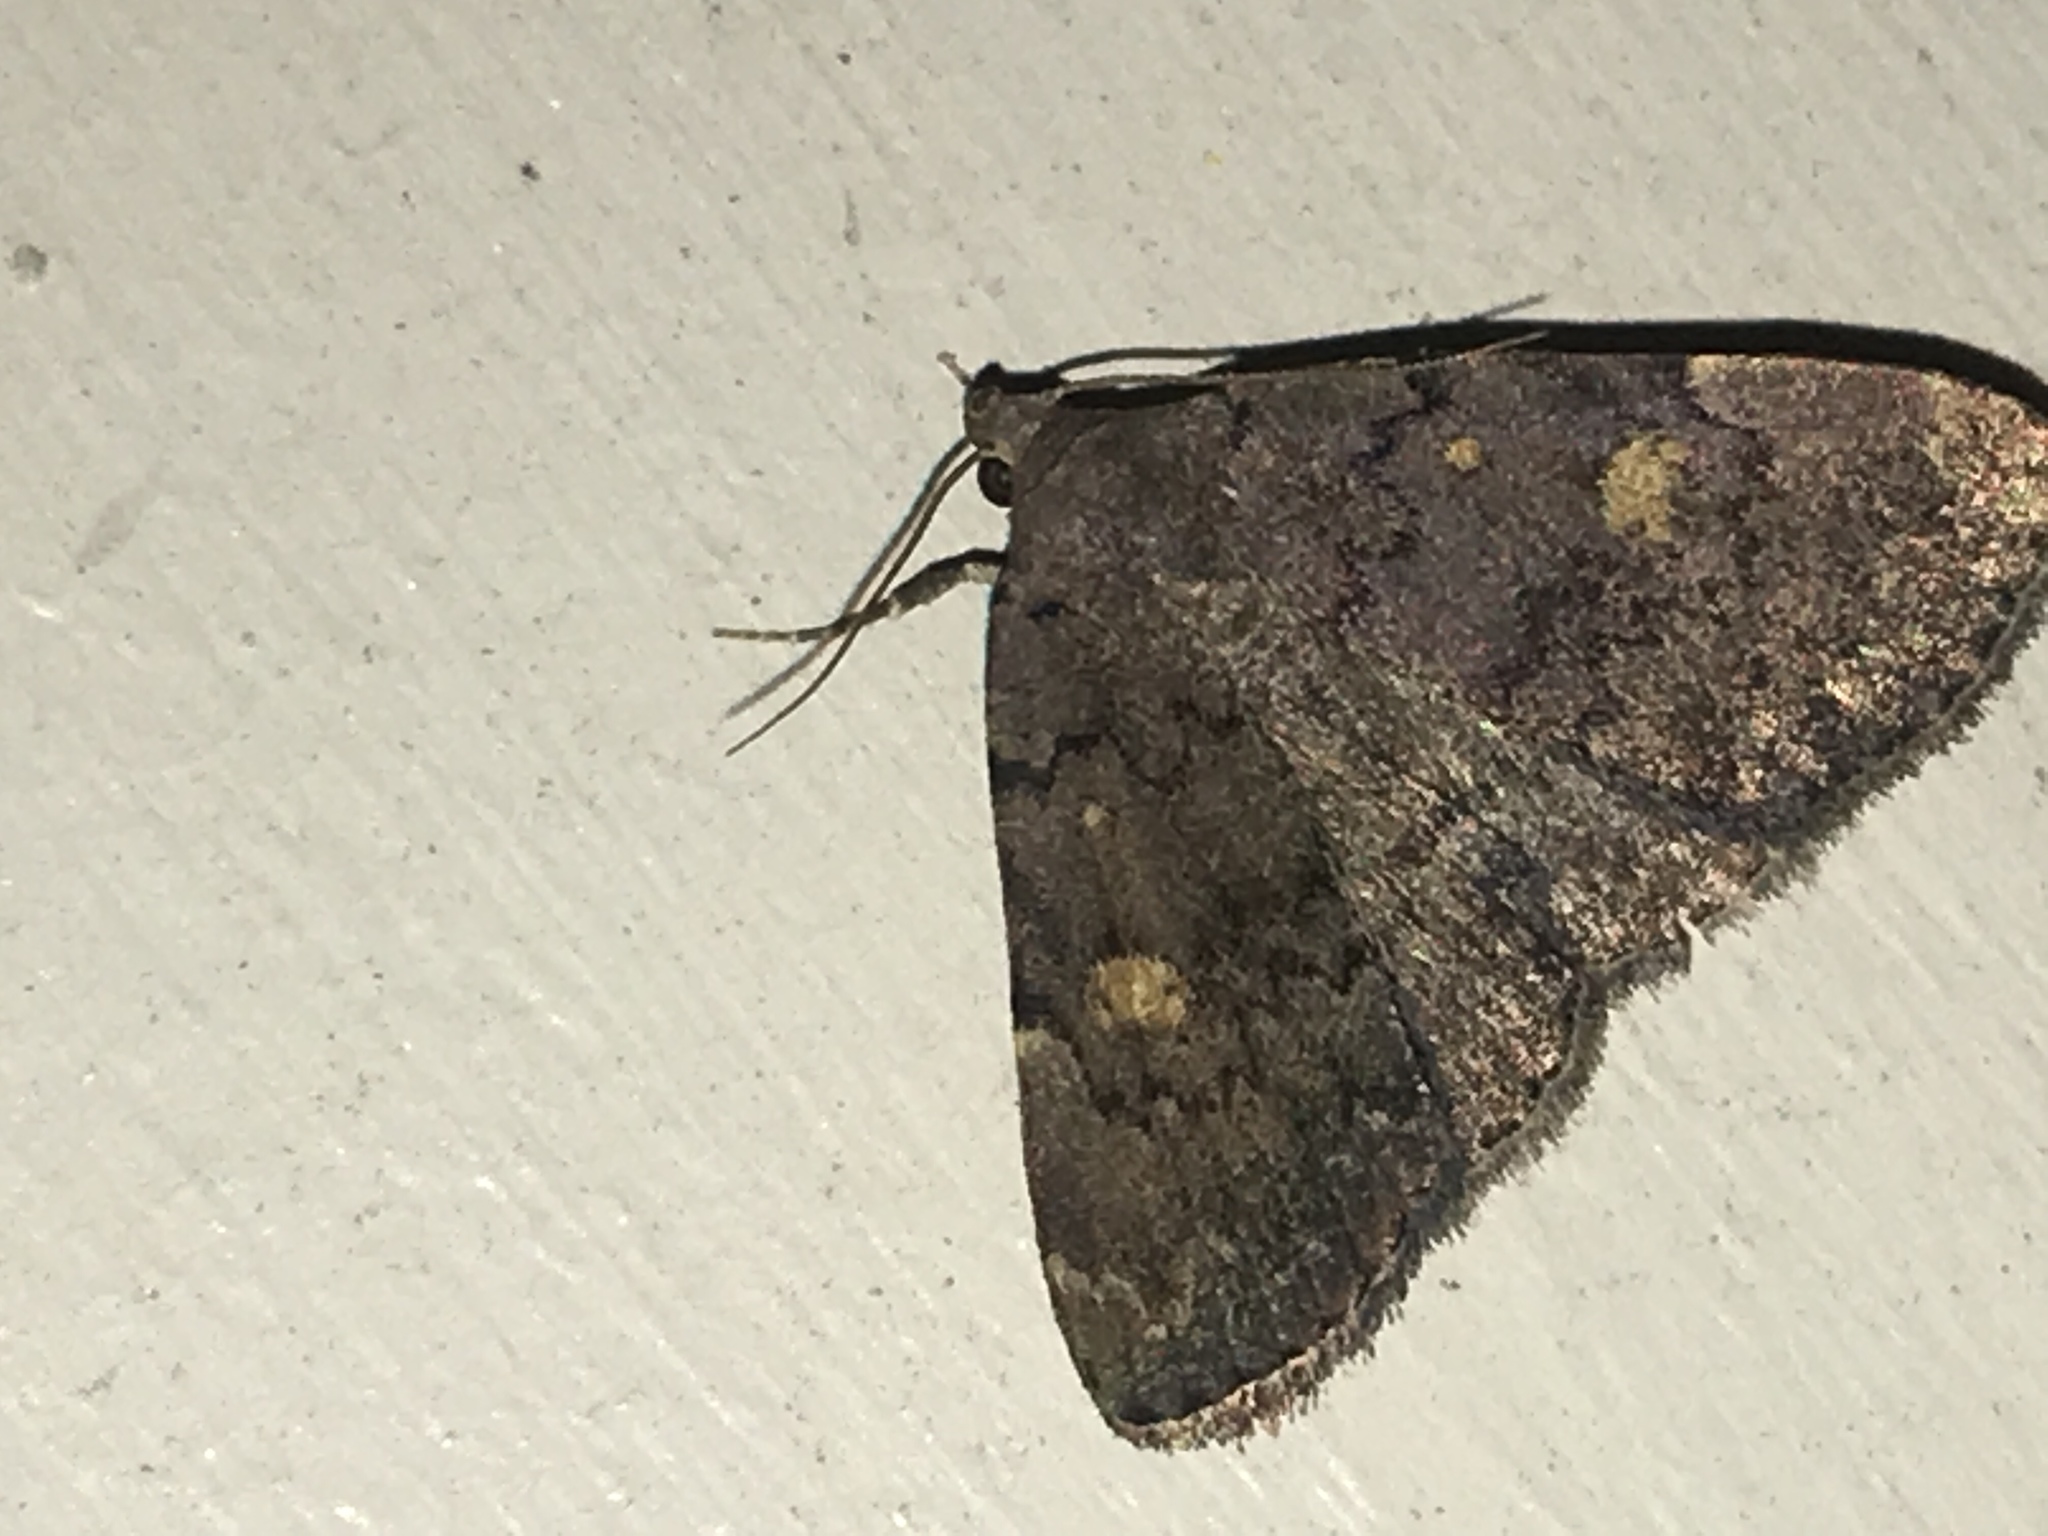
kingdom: Animalia
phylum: Arthropoda
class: Insecta
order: Lepidoptera
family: Erebidae
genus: Idia
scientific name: Idia aemula
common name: Common idia moth
